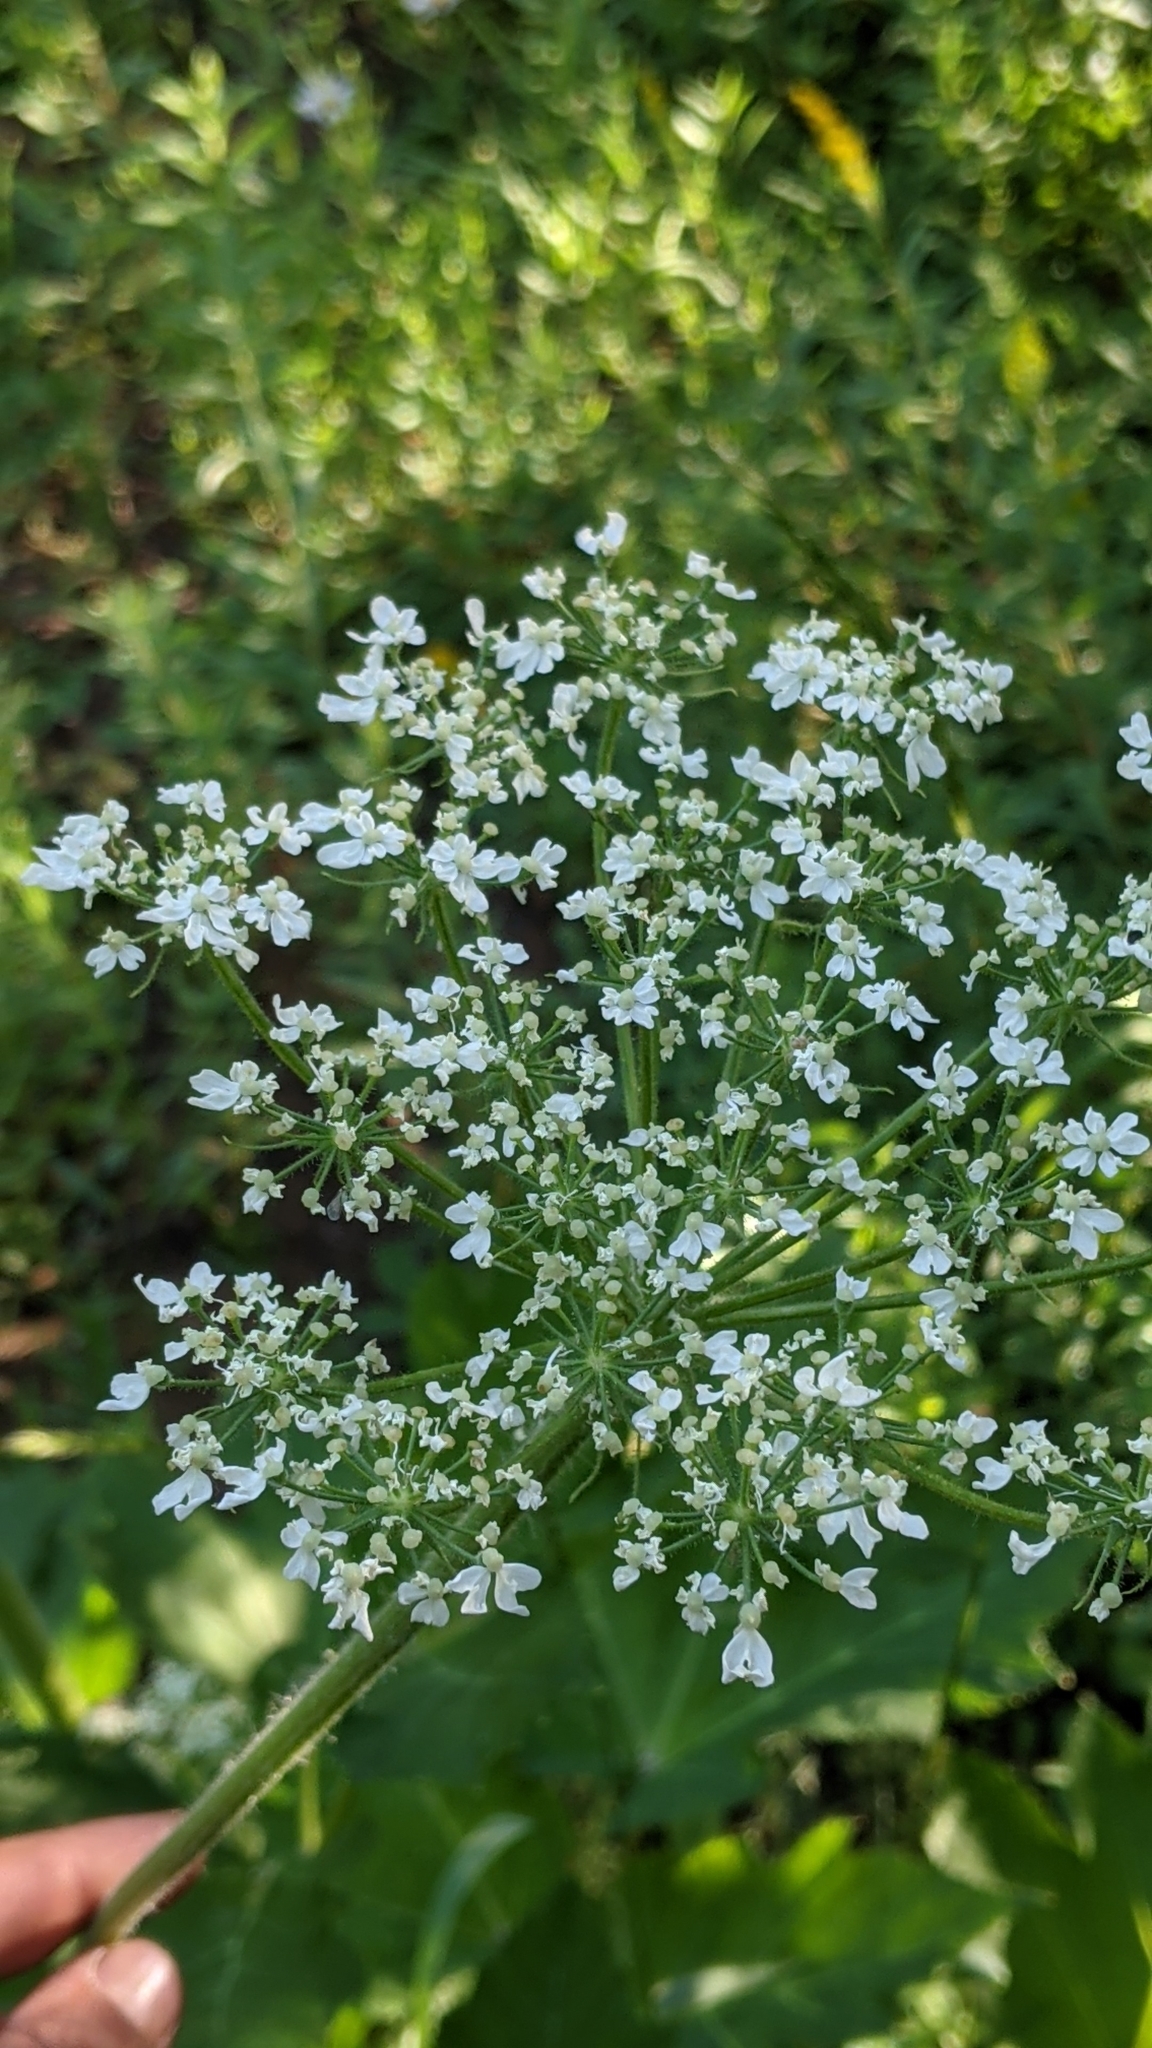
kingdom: Plantae
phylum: Tracheophyta
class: Magnoliopsida
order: Apiales
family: Apiaceae
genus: Heracleum
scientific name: Heracleum maximum
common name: American cow parsnip
